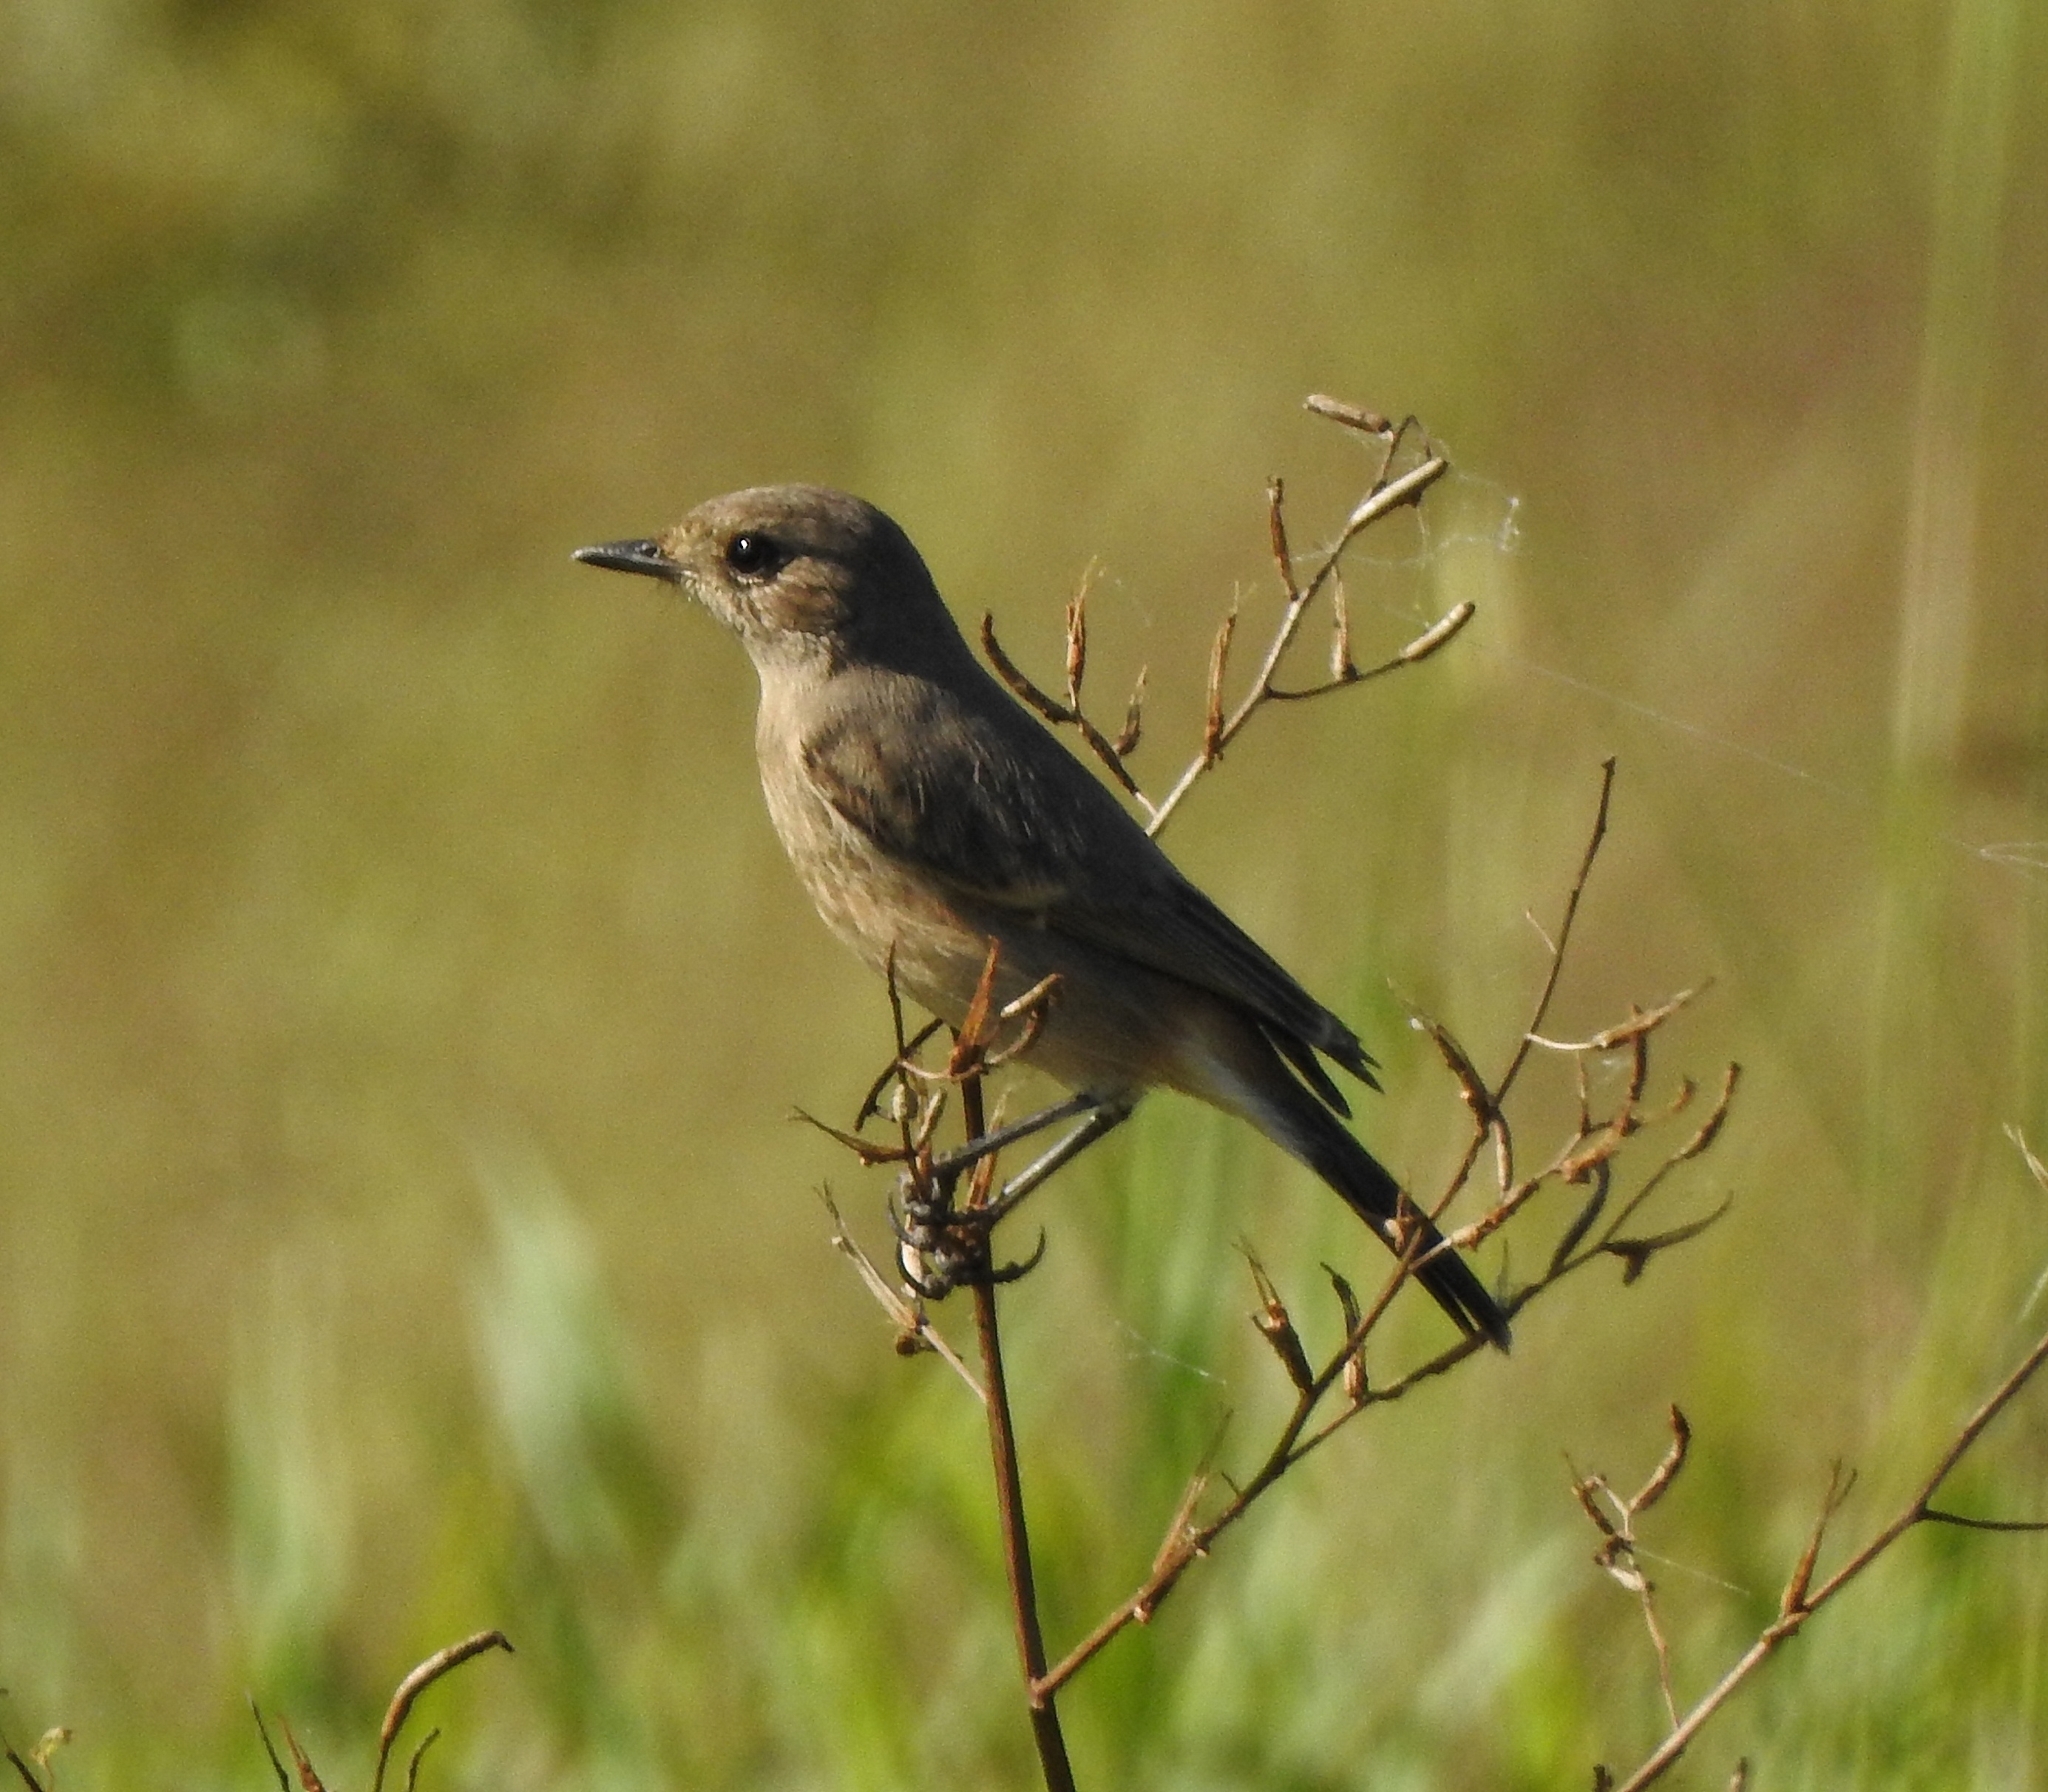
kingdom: Animalia
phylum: Chordata
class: Aves
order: Passeriformes
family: Muscicapidae
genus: Saxicola
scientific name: Saxicola caprata
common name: Pied bush chat
